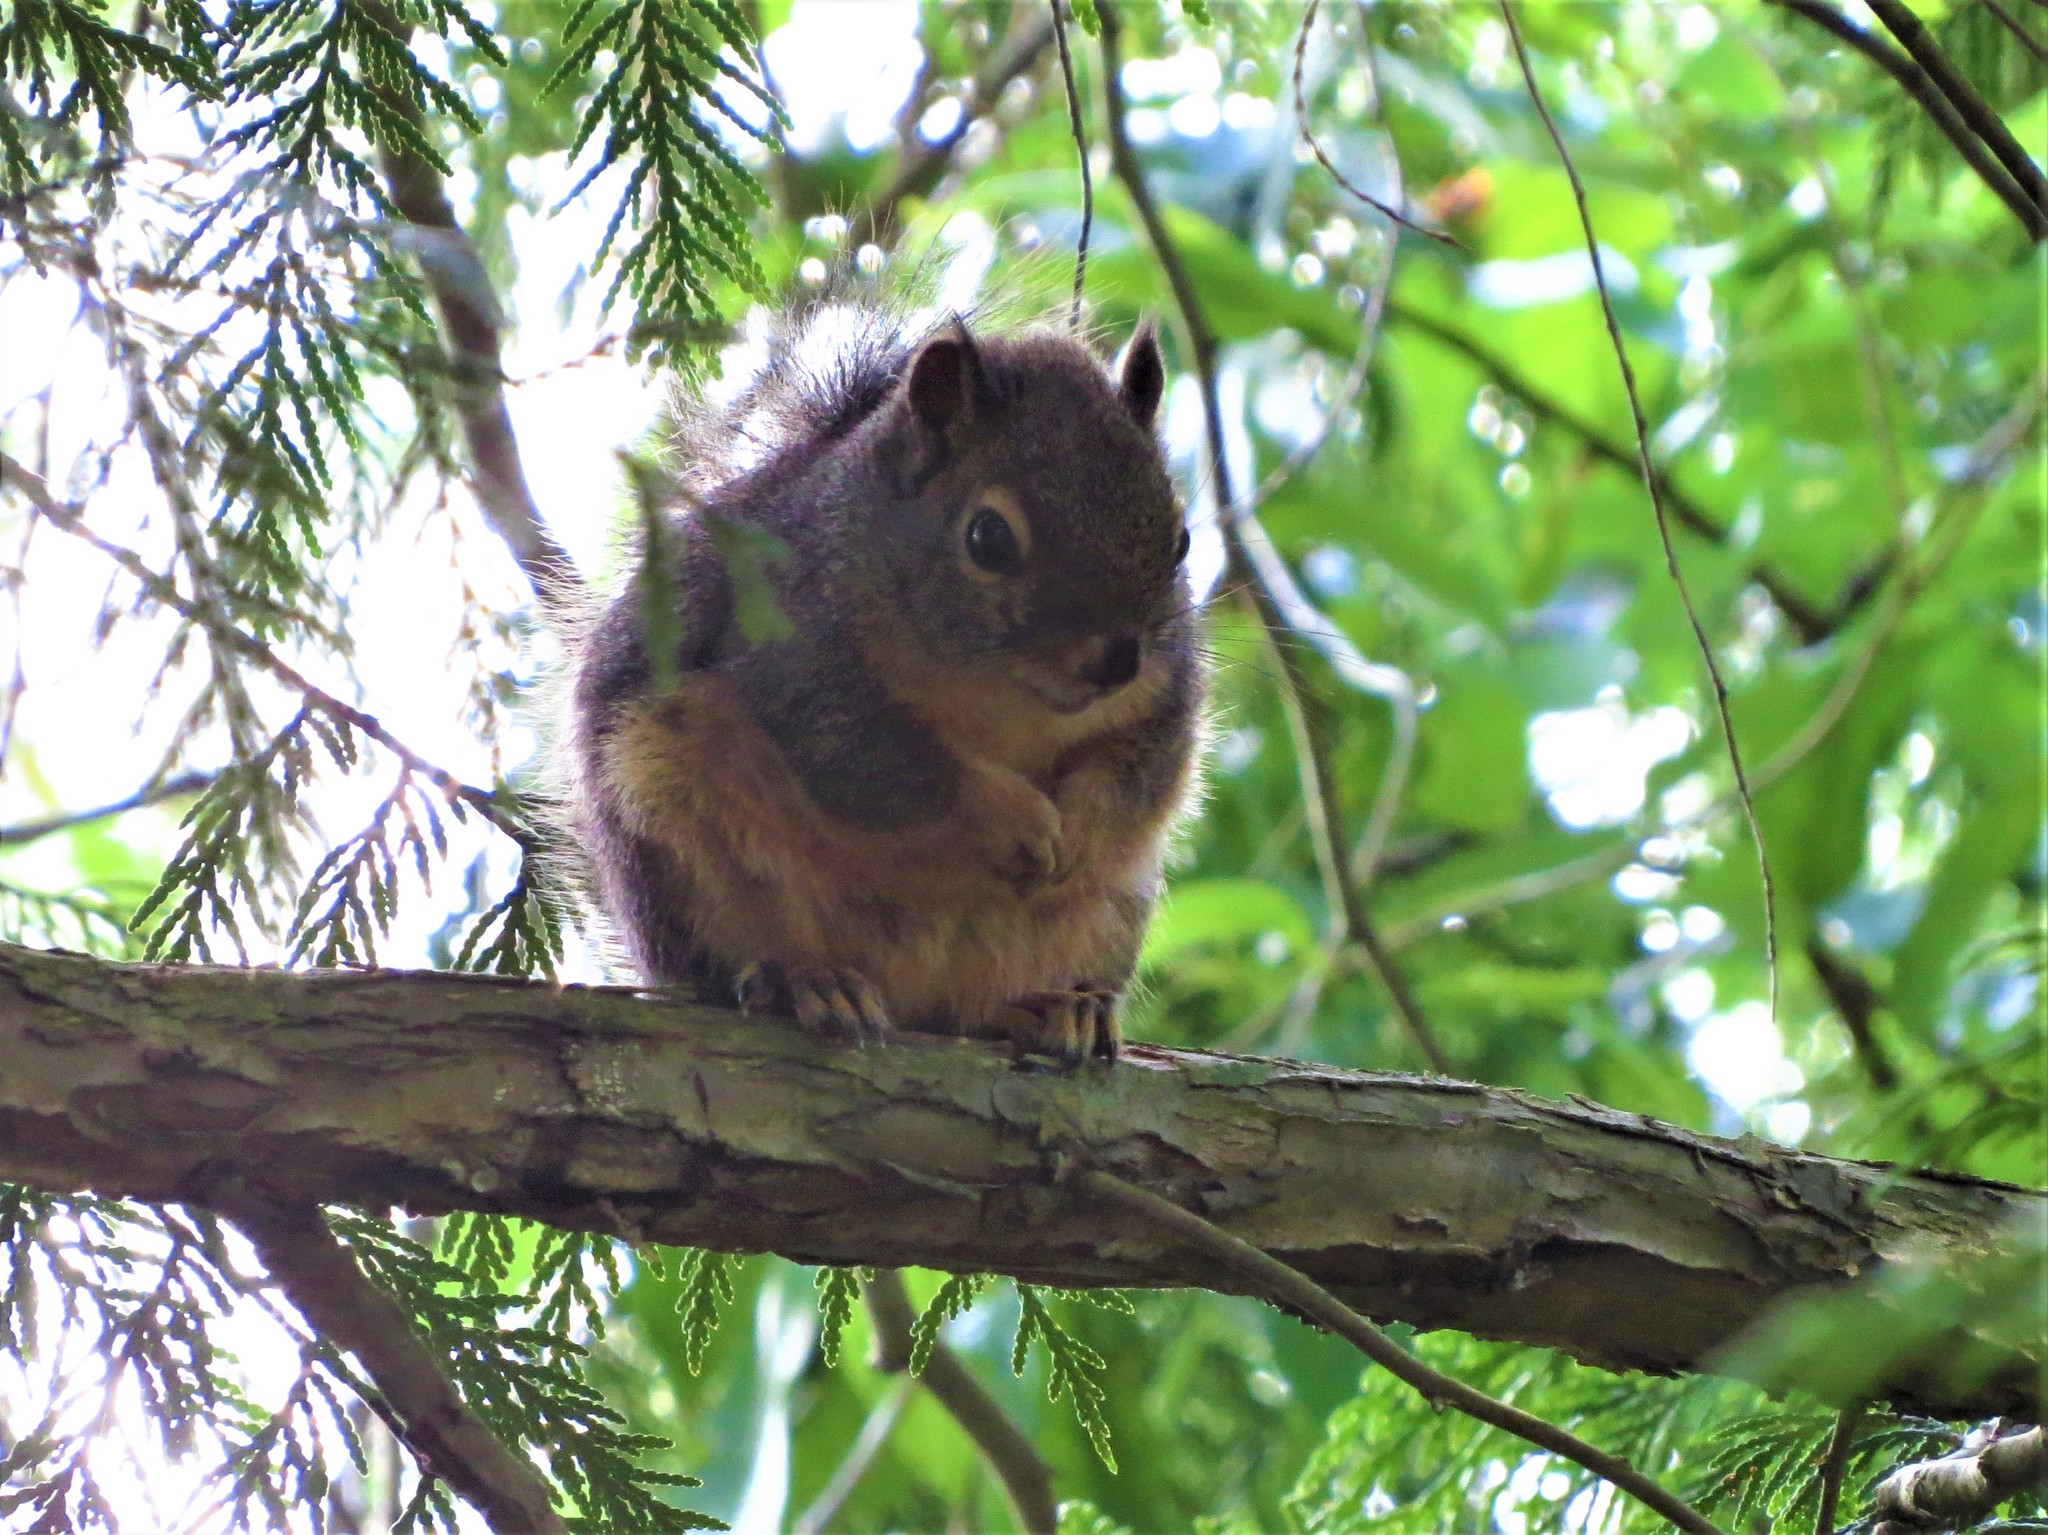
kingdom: Animalia
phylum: Chordata
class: Mammalia
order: Rodentia
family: Sciuridae
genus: Tamiasciurus
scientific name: Tamiasciurus douglasii
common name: Douglas's squirrel
